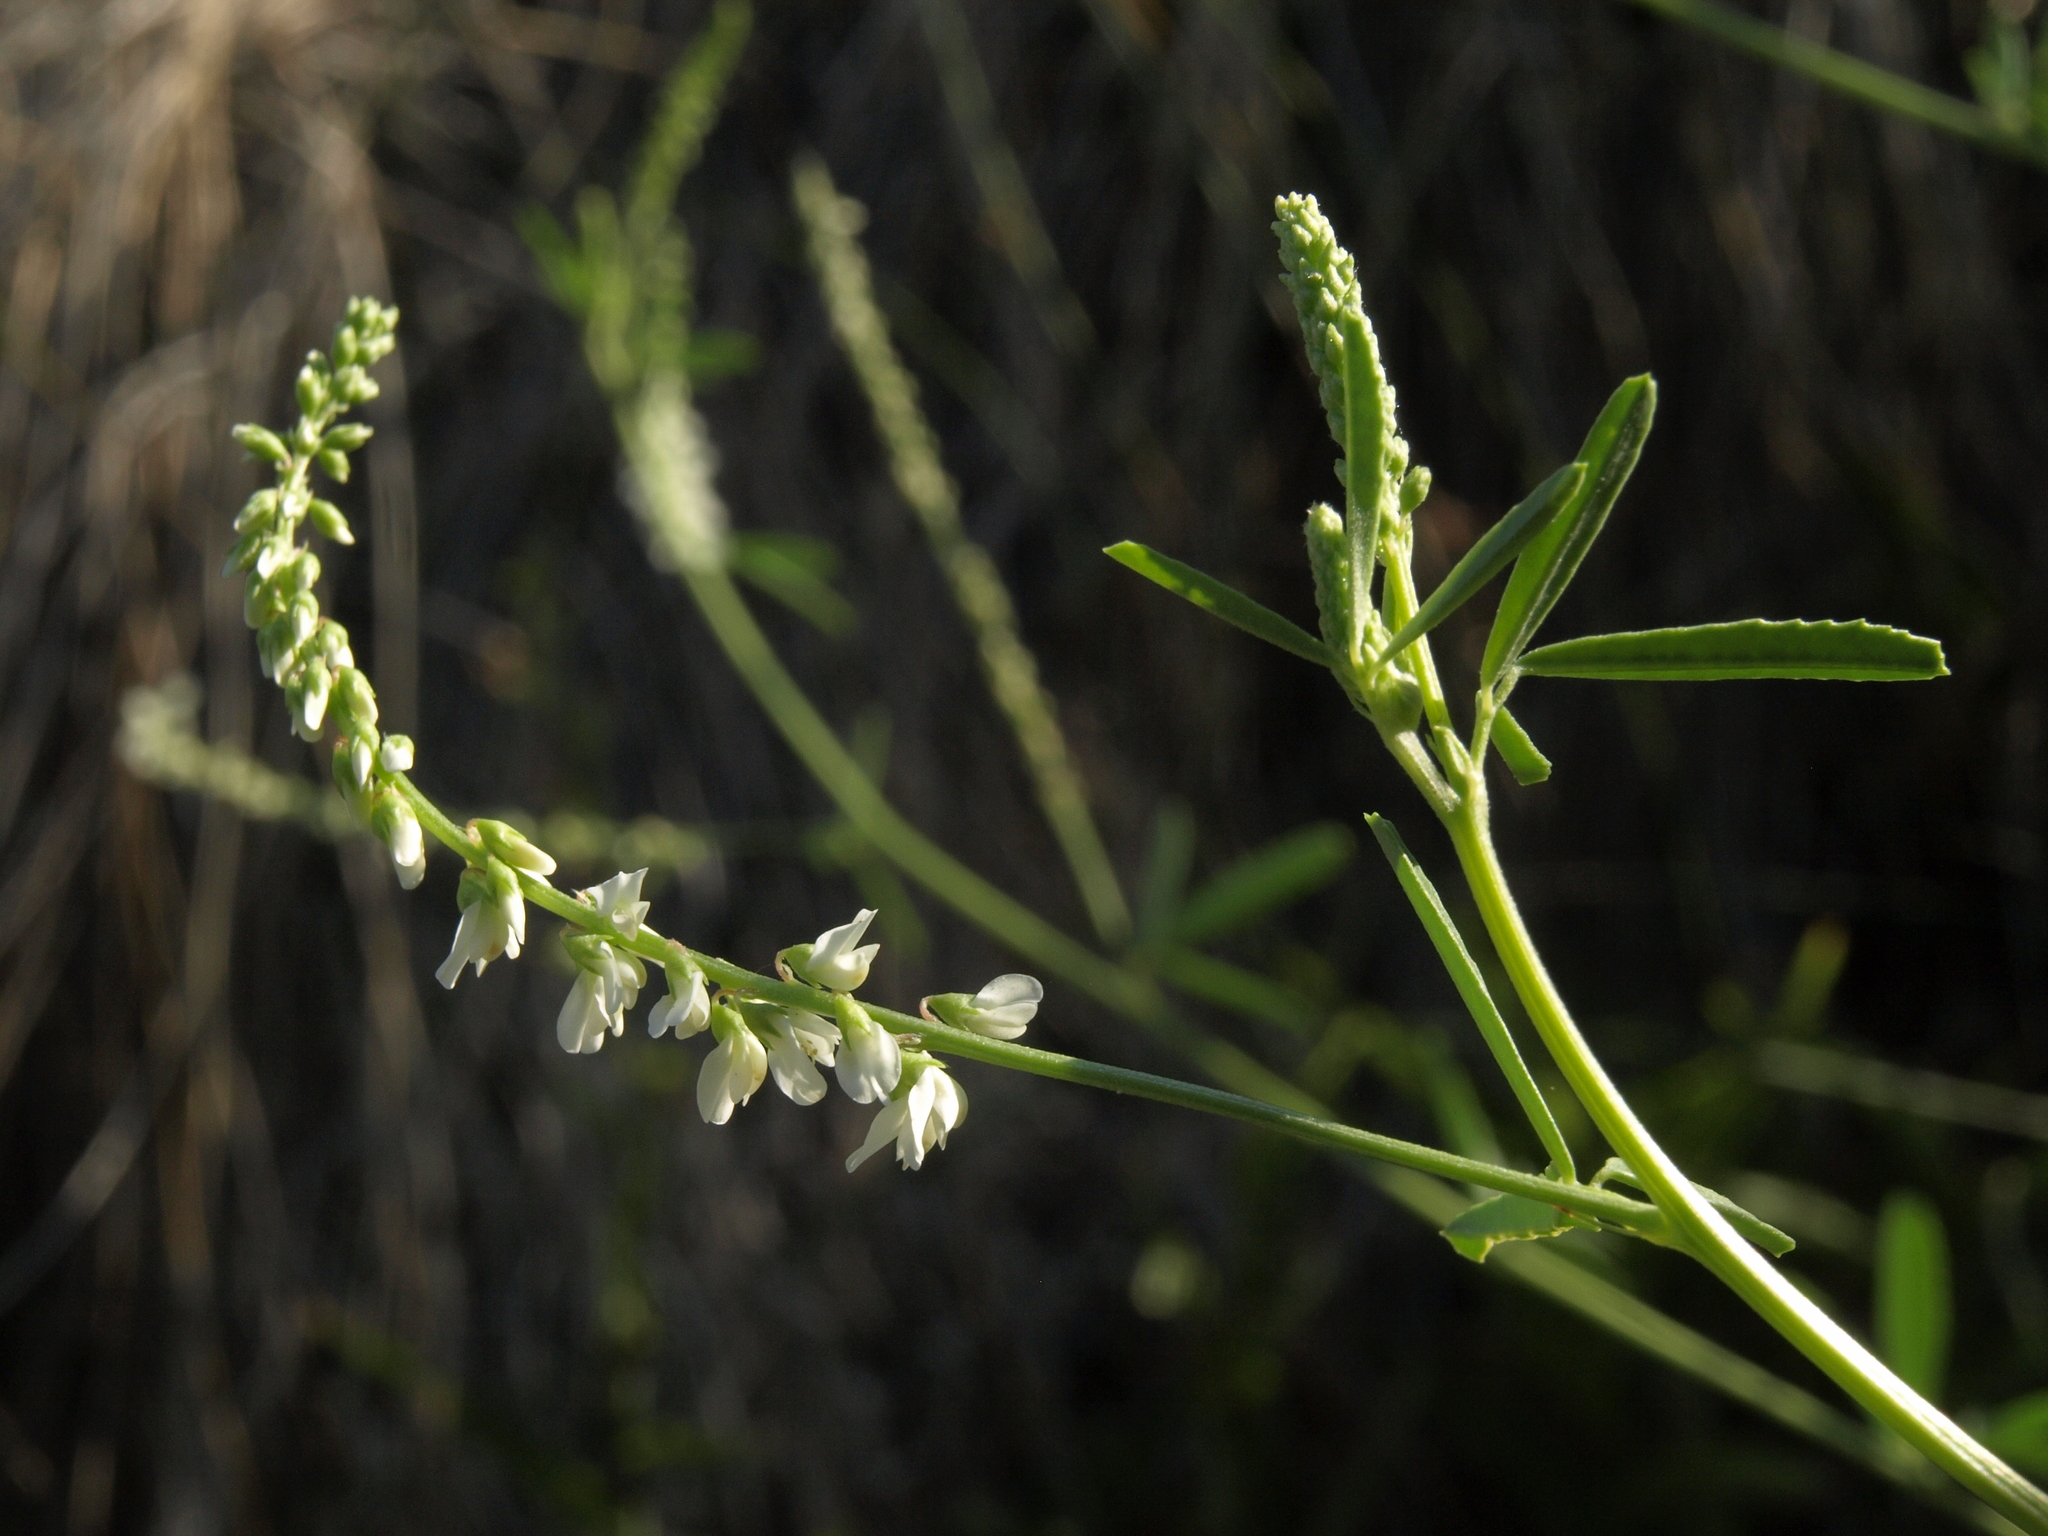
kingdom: Plantae
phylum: Tracheophyta
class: Magnoliopsida
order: Fabales
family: Fabaceae
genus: Melilotus
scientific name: Melilotus albus
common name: White melilot
